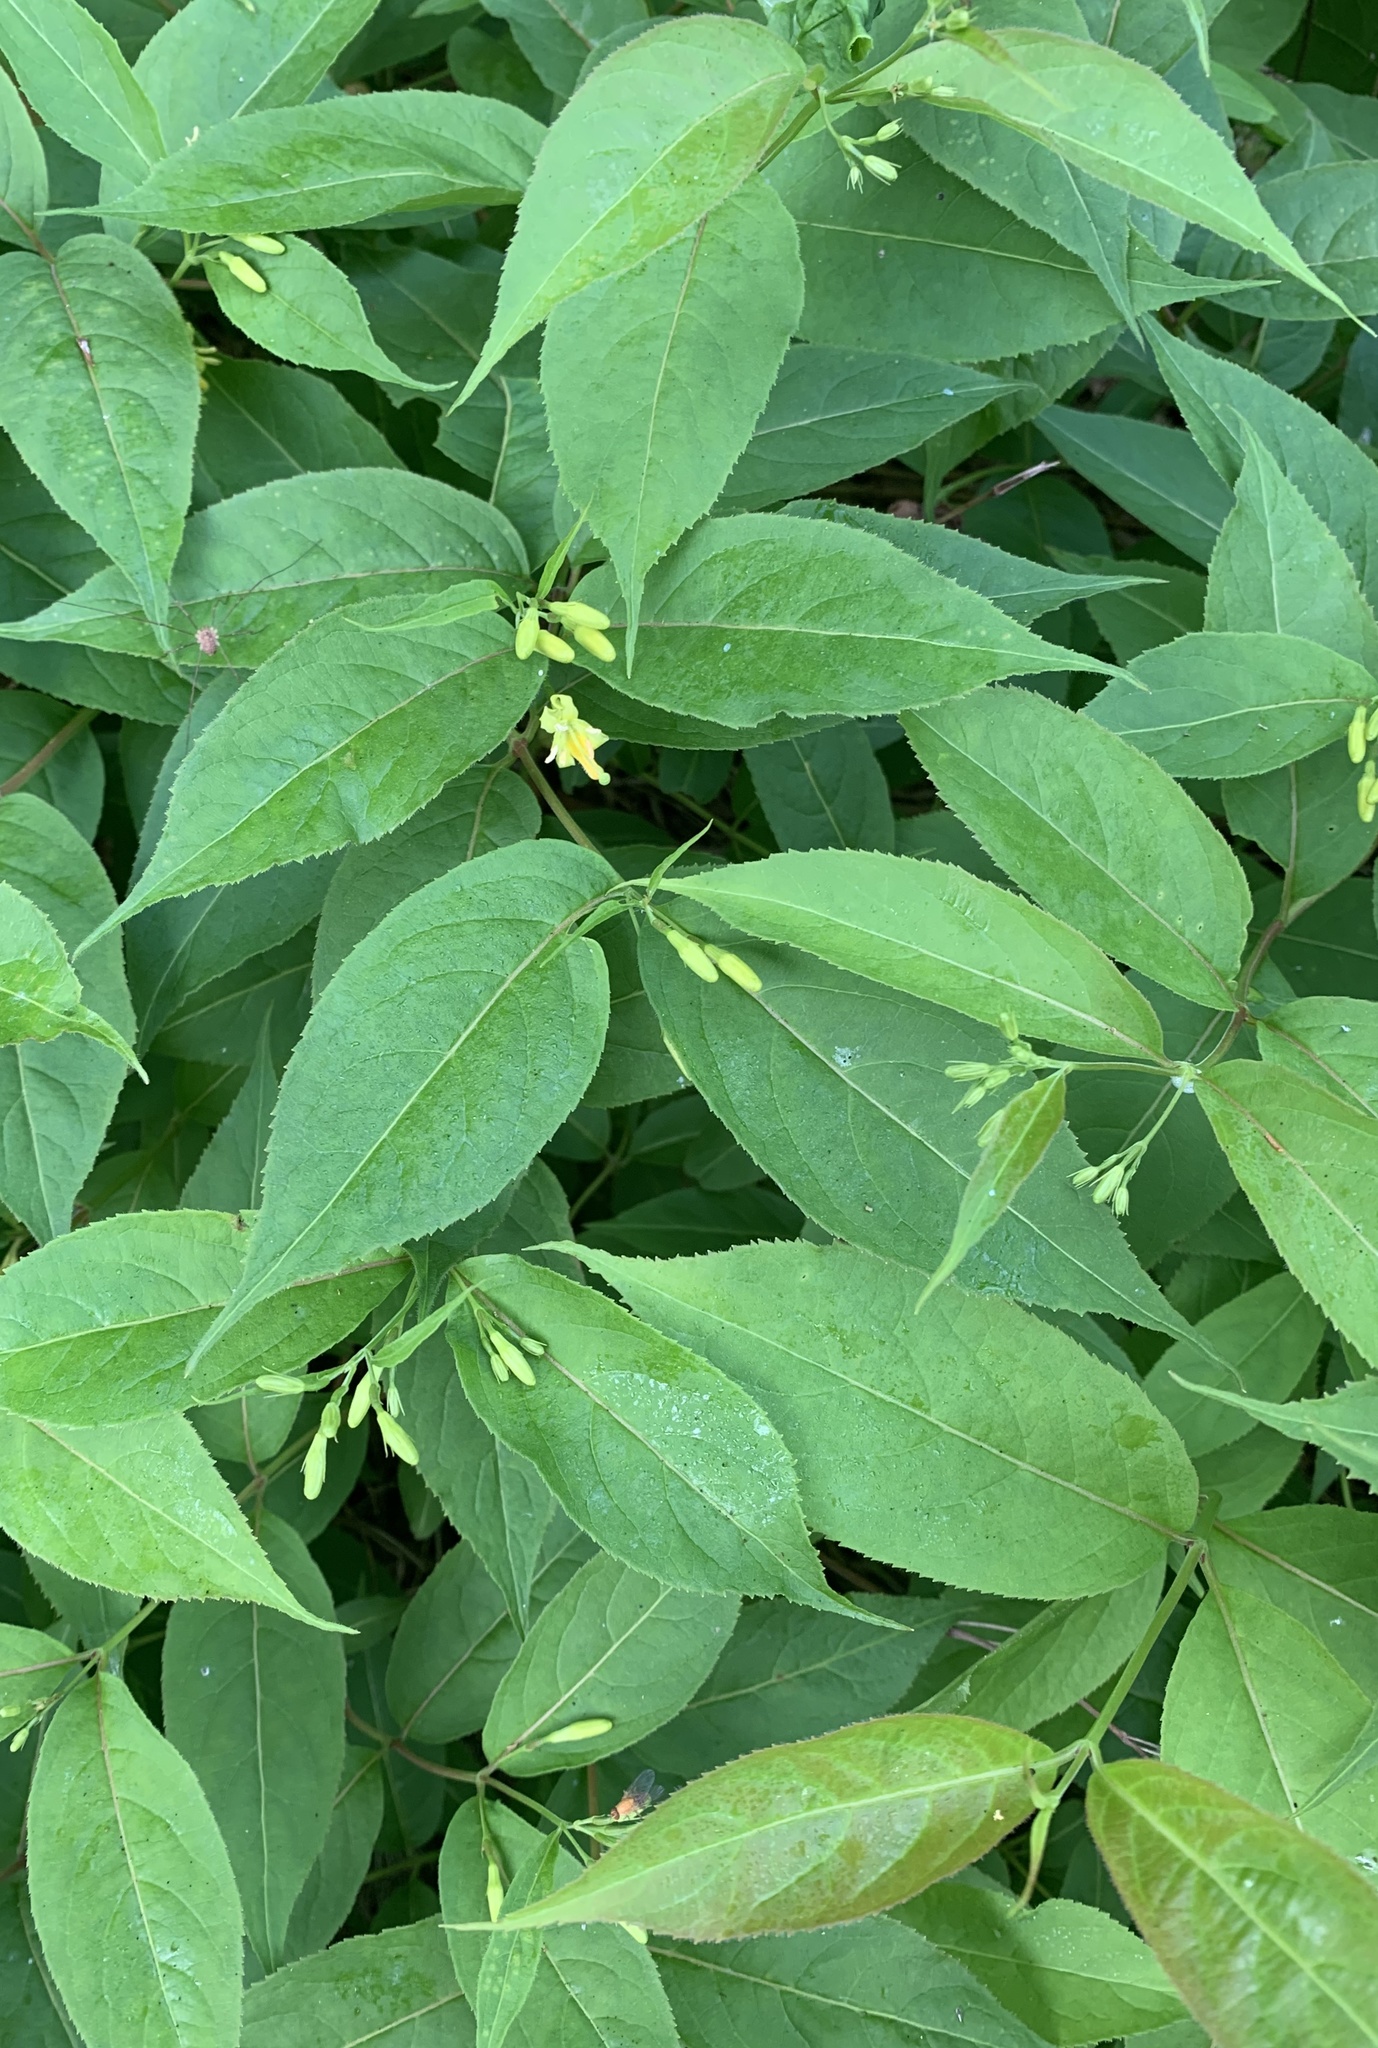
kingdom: Plantae
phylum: Tracheophyta
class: Magnoliopsida
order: Dipsacales
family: Caprifoliaceae
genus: Diervilla
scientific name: Diervilla lonicera
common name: Bush-honeysuckle
